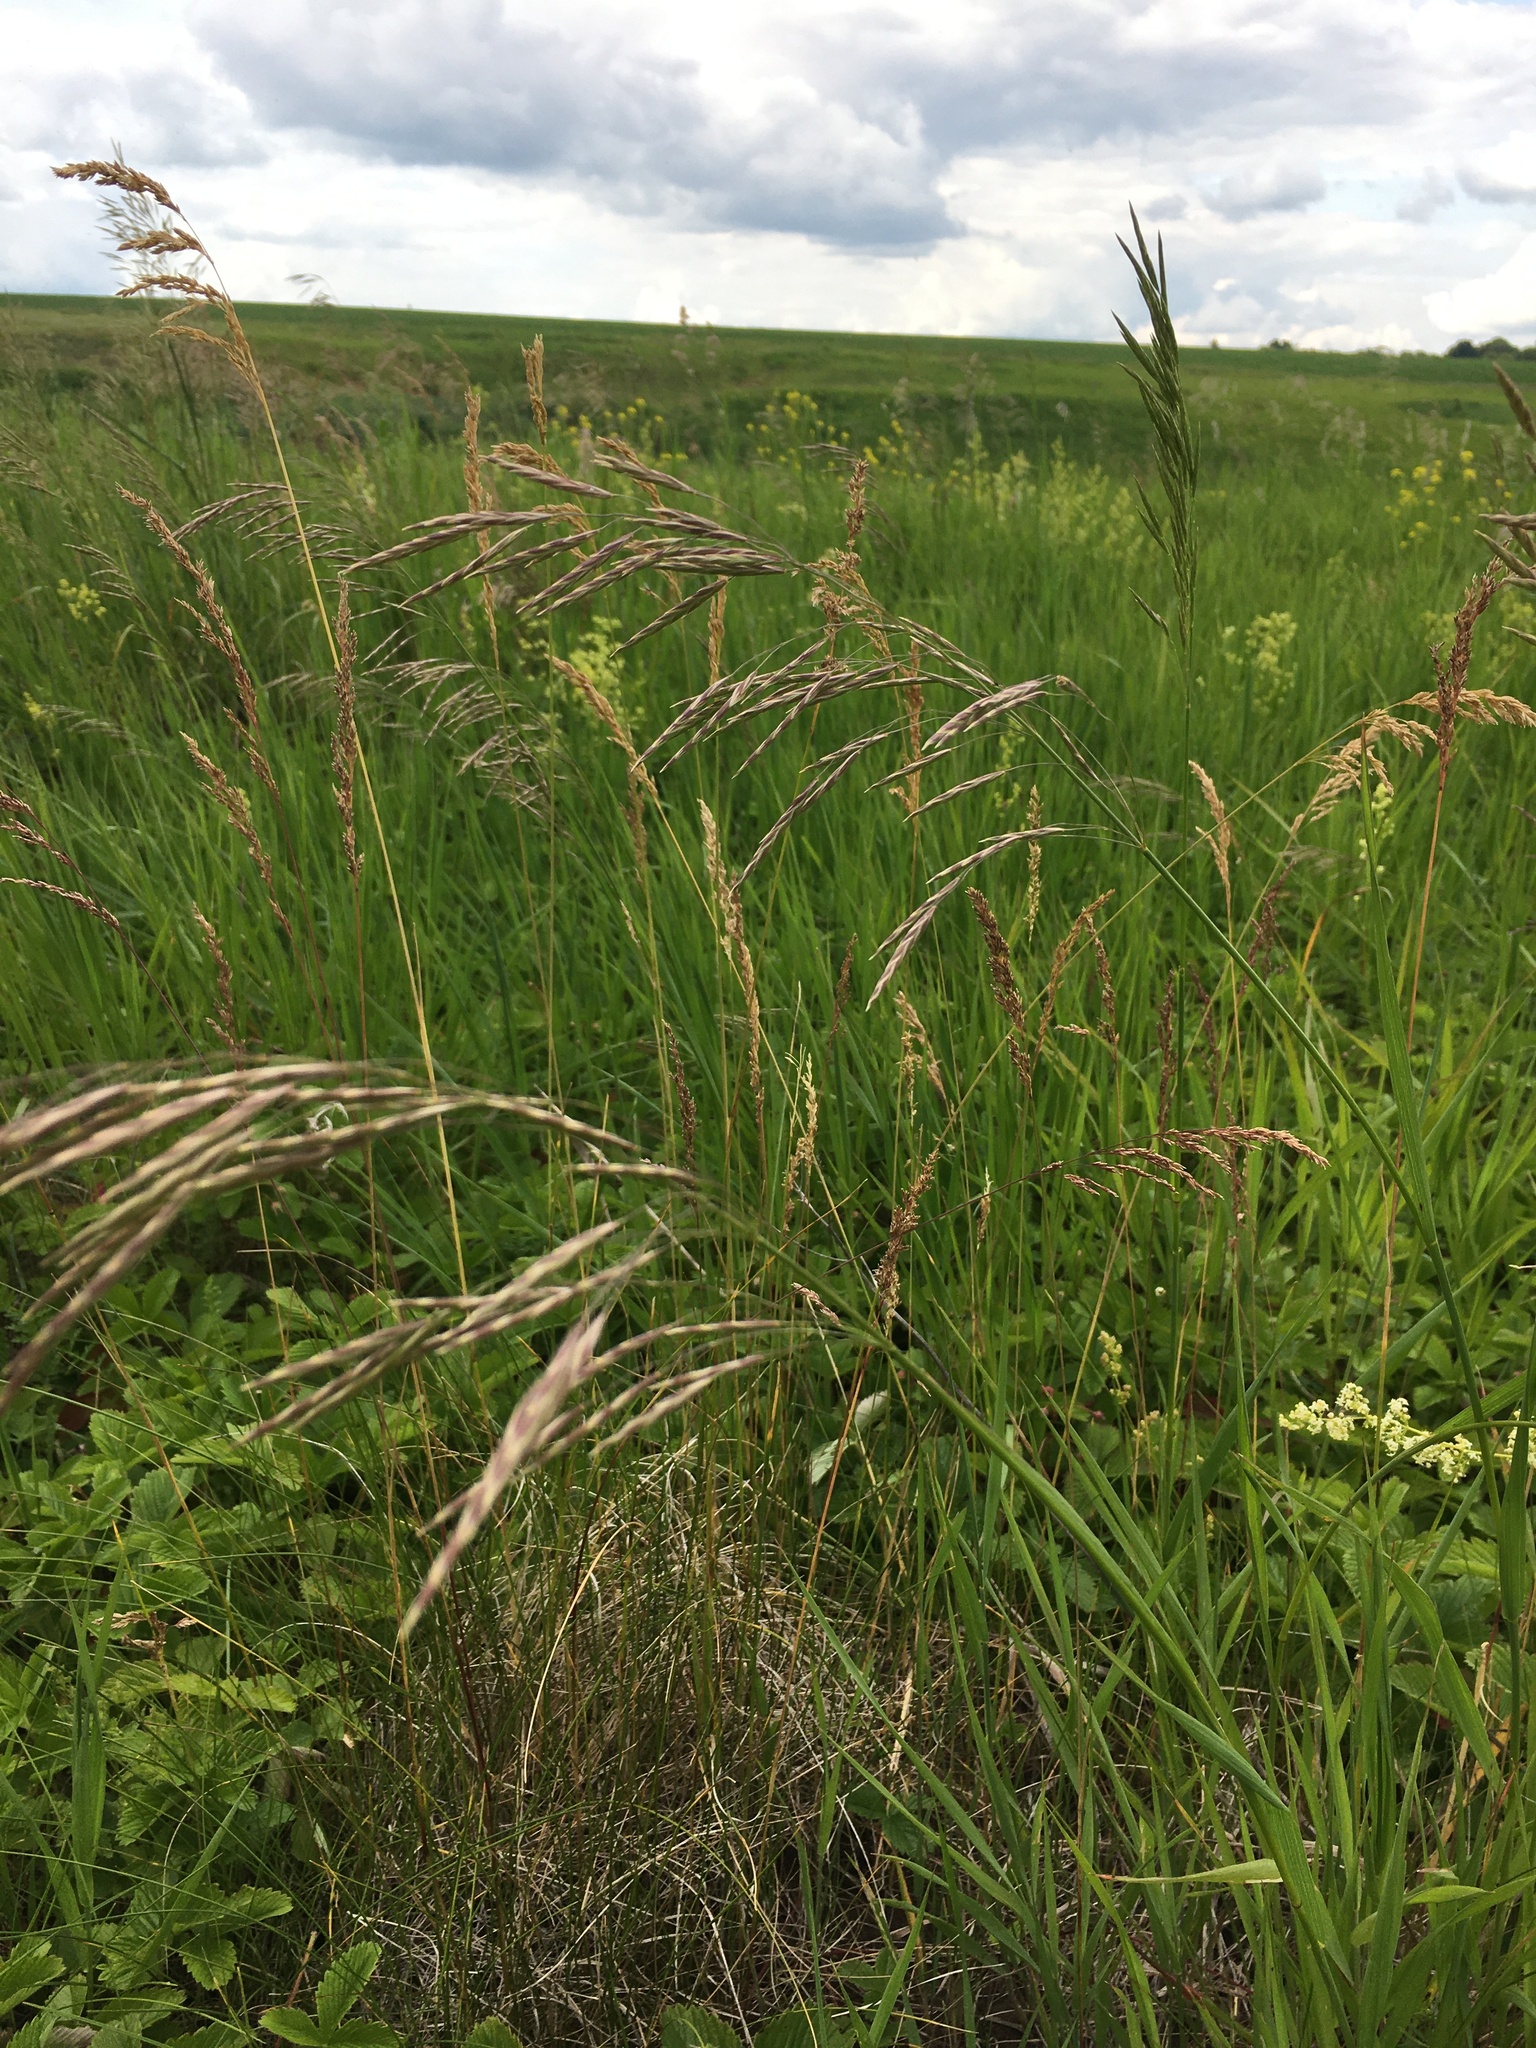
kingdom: Plantae
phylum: Tracheophyta
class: Liliopsida
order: Poales
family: Poaceae
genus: Bromus
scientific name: Bromus inermis
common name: Smooth brome
